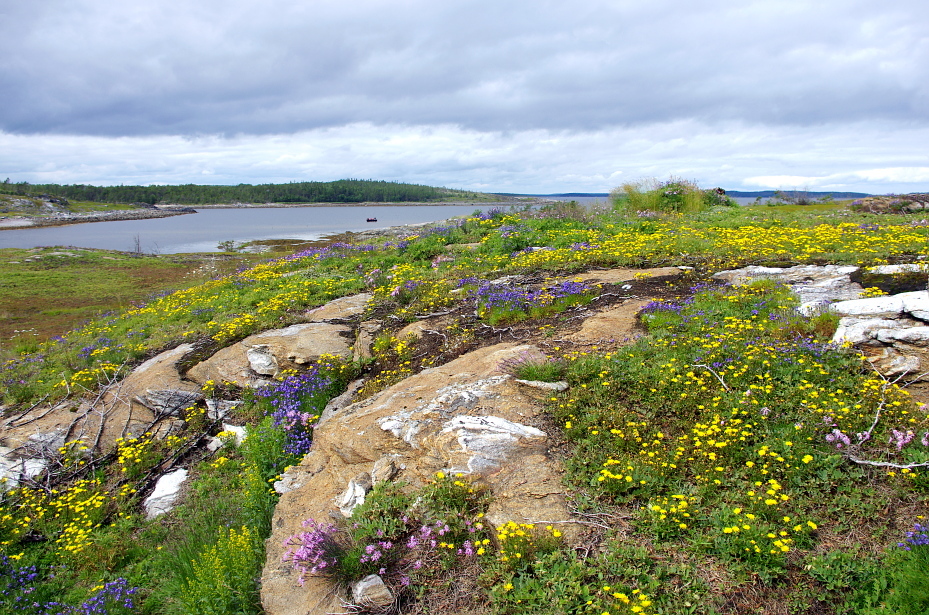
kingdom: Plantae
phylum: Tracheophyta
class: Magnoliopsida
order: Caryophyllales
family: Caryophyllaceae
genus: Dianthus
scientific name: Dianthus superbus
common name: Fringed pink
